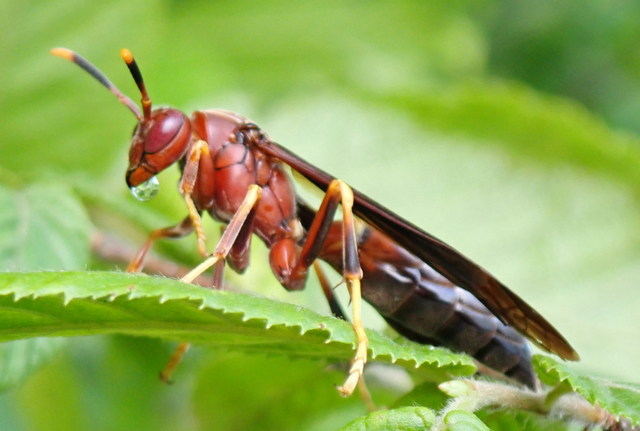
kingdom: Animalia
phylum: Arthropoda
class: Insecta
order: Hymenoptera
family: Eumenidae
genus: Polistes
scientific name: Polistes annularis
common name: Ringed paper wasp
